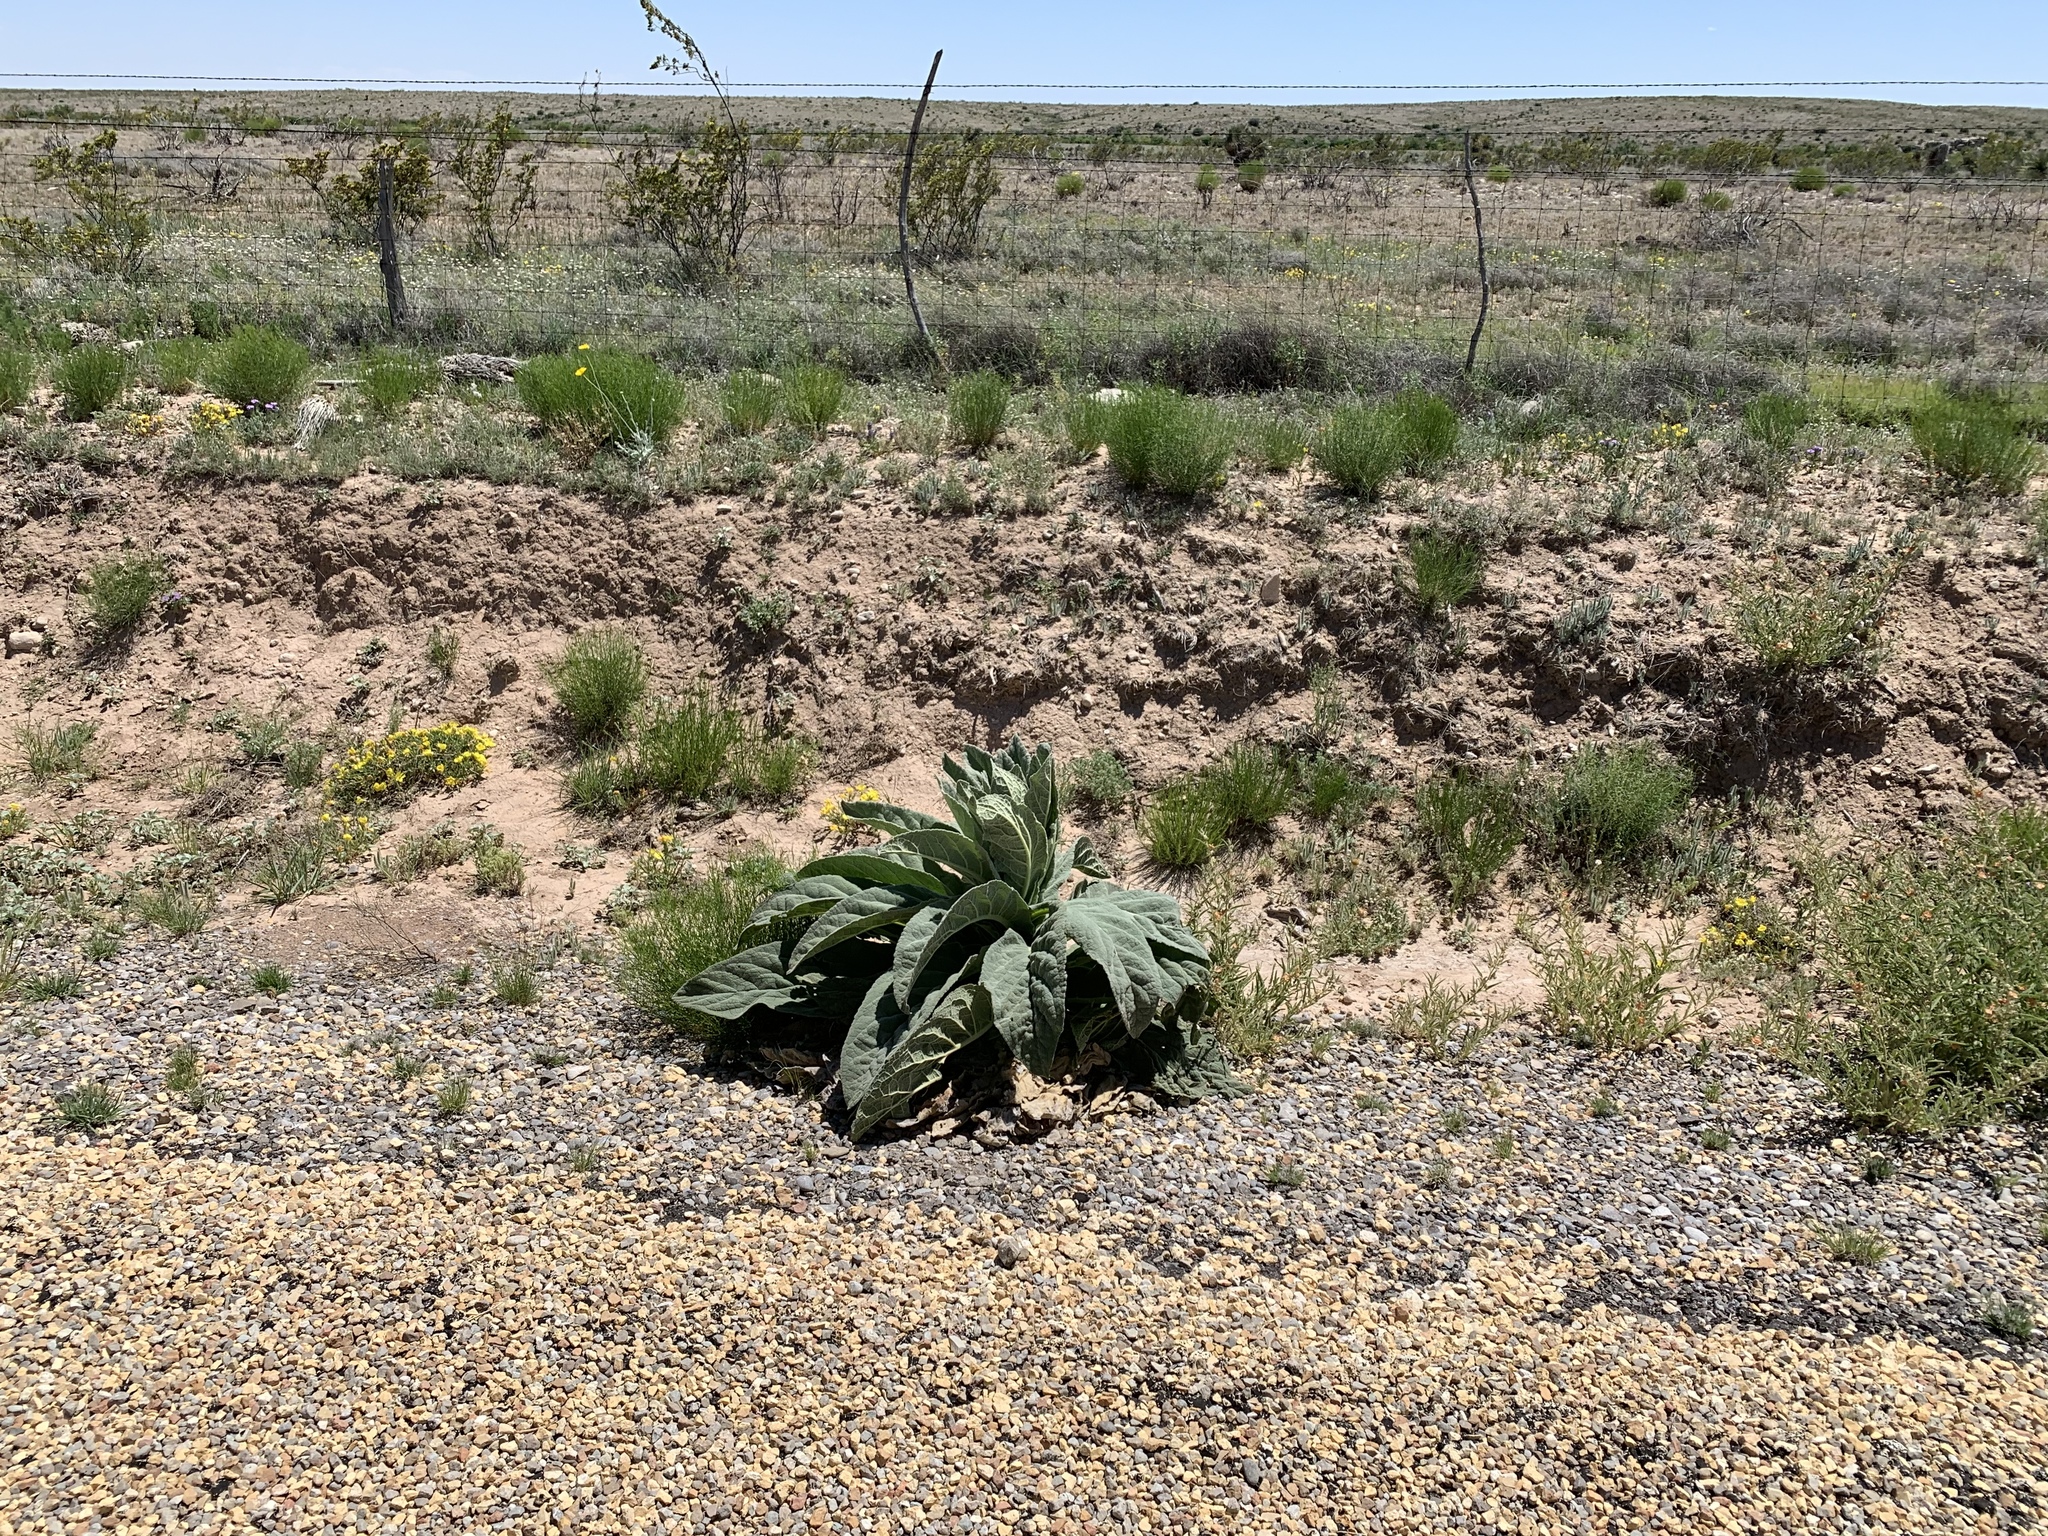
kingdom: Plantae
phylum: Tracheophyta
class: Magnoliopsida
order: Lamiales
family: Scrophulariaceae
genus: Verbascum
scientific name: Verbascum thapsus
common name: Common mullein
